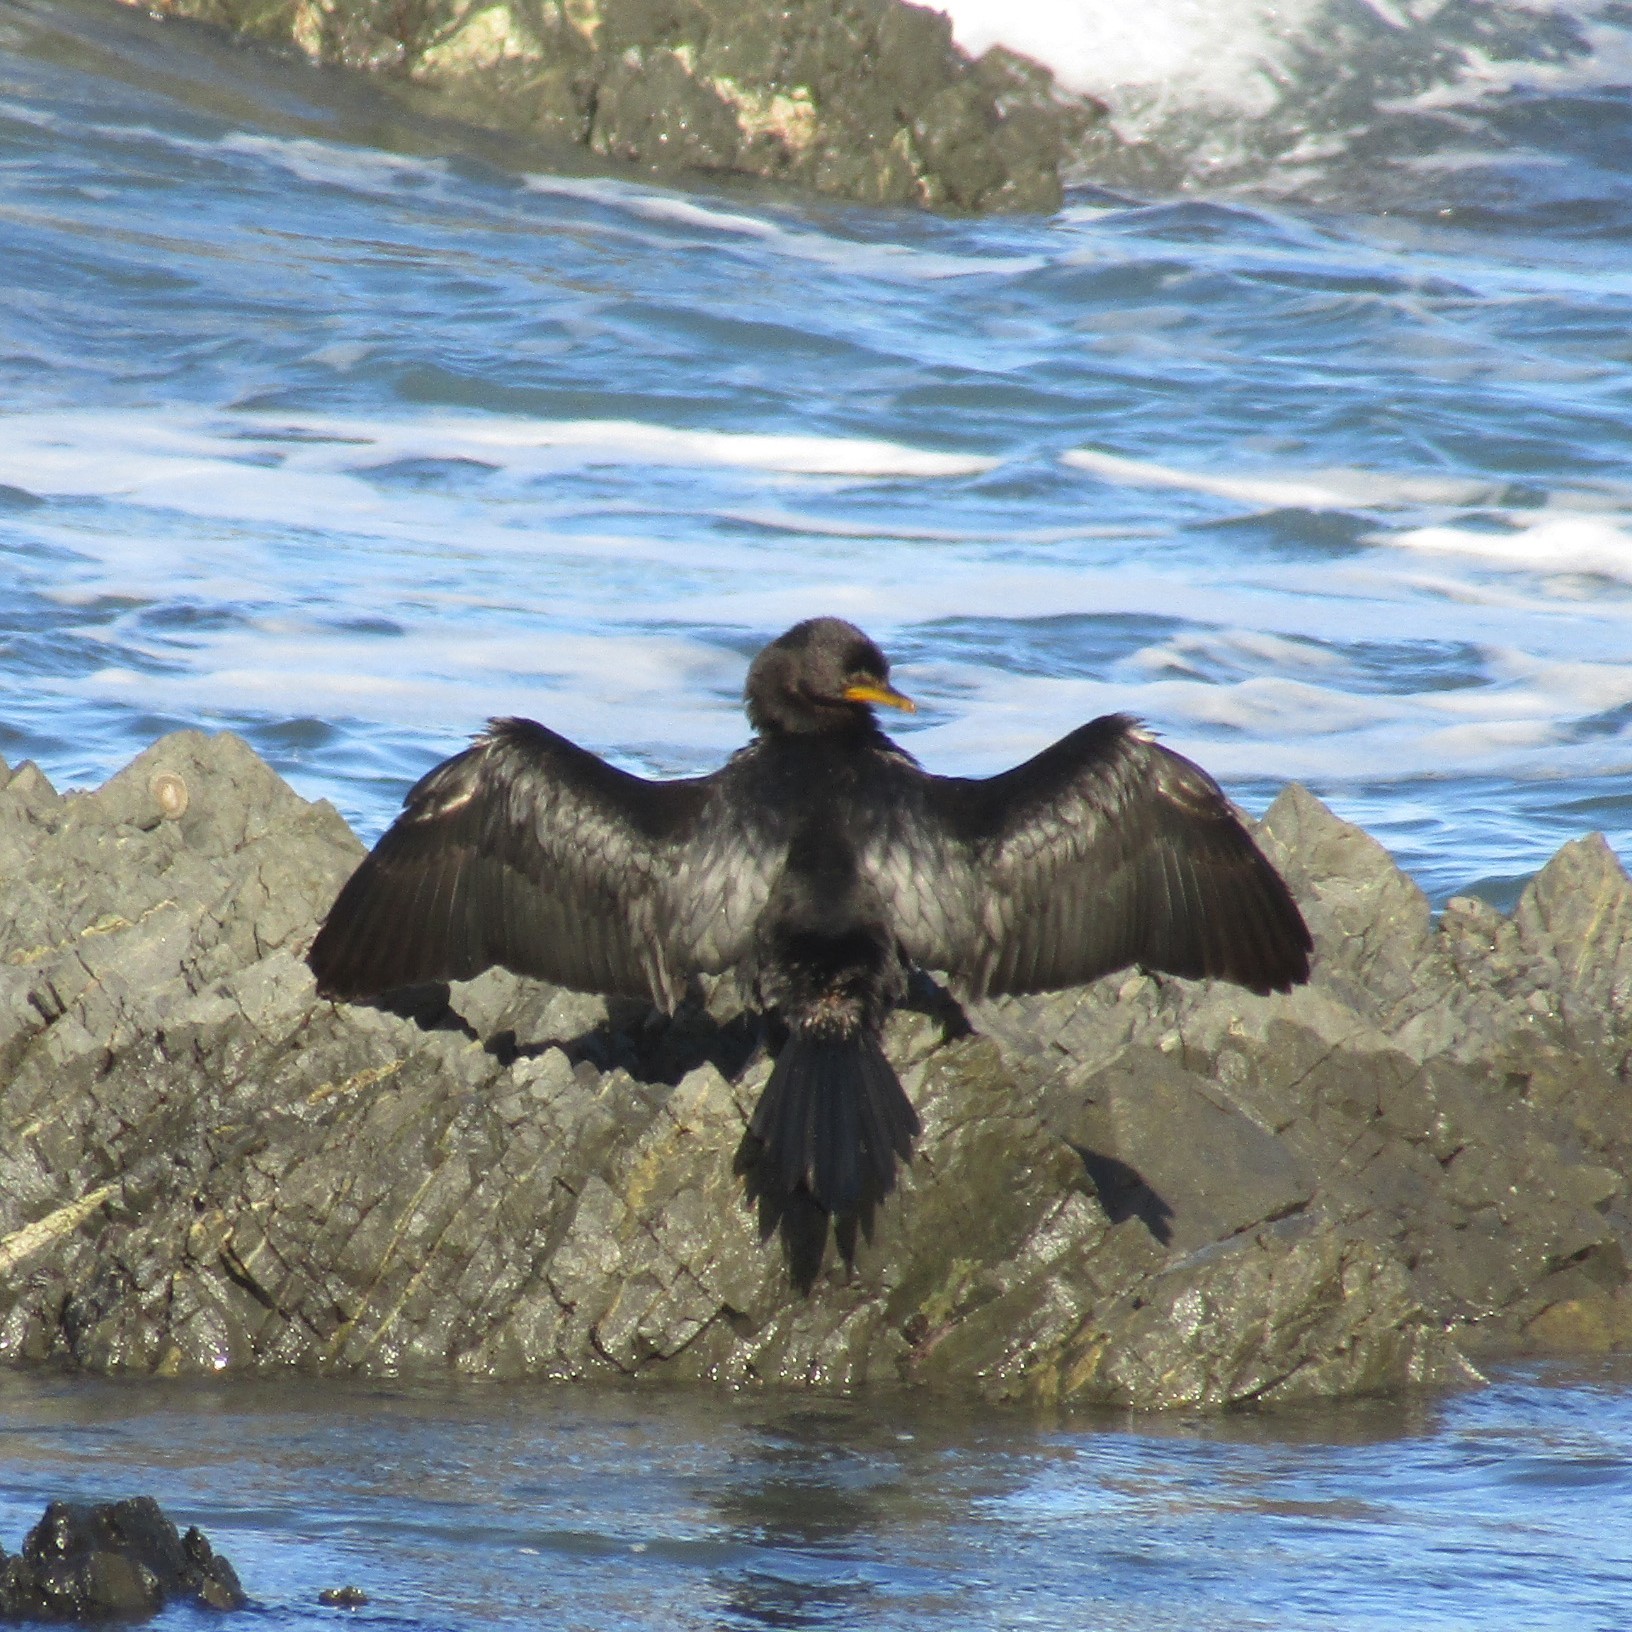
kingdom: Animalia
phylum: Chordata
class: Aves
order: Suliformes
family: Phalacrocoracidae
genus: Microcarbo
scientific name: Microcarbo melanoleucos
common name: Little pied cormorant
